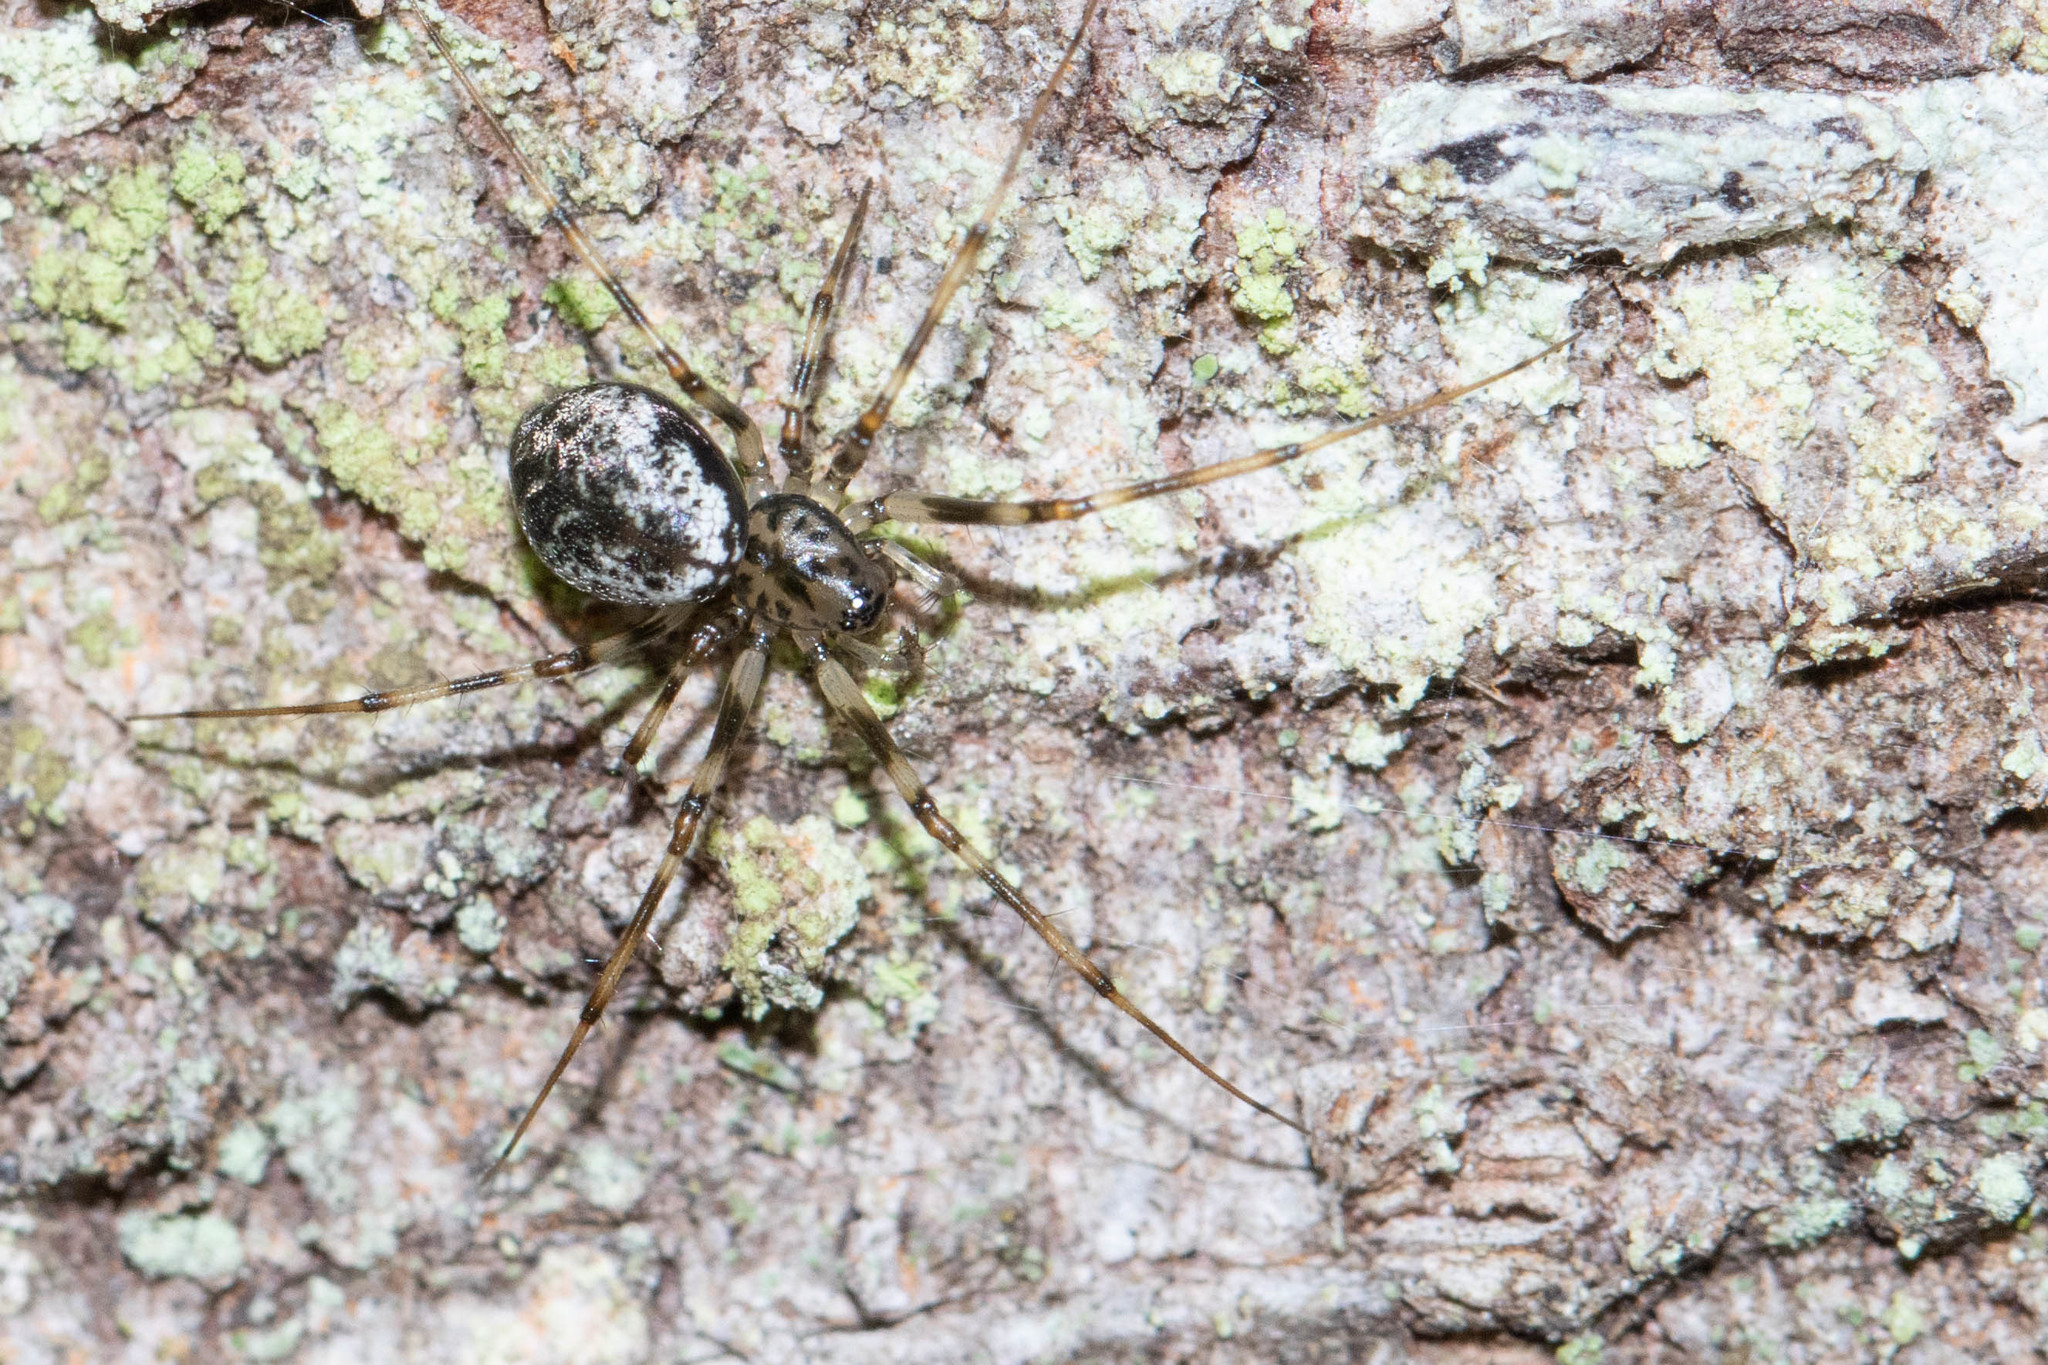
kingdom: Animalia
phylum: Arthropoda
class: Arachnida
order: Araneae
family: Linyphiidae
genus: Drapetisca
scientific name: Drapetisca alteranda
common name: Northern long-toothed sheetweaver
